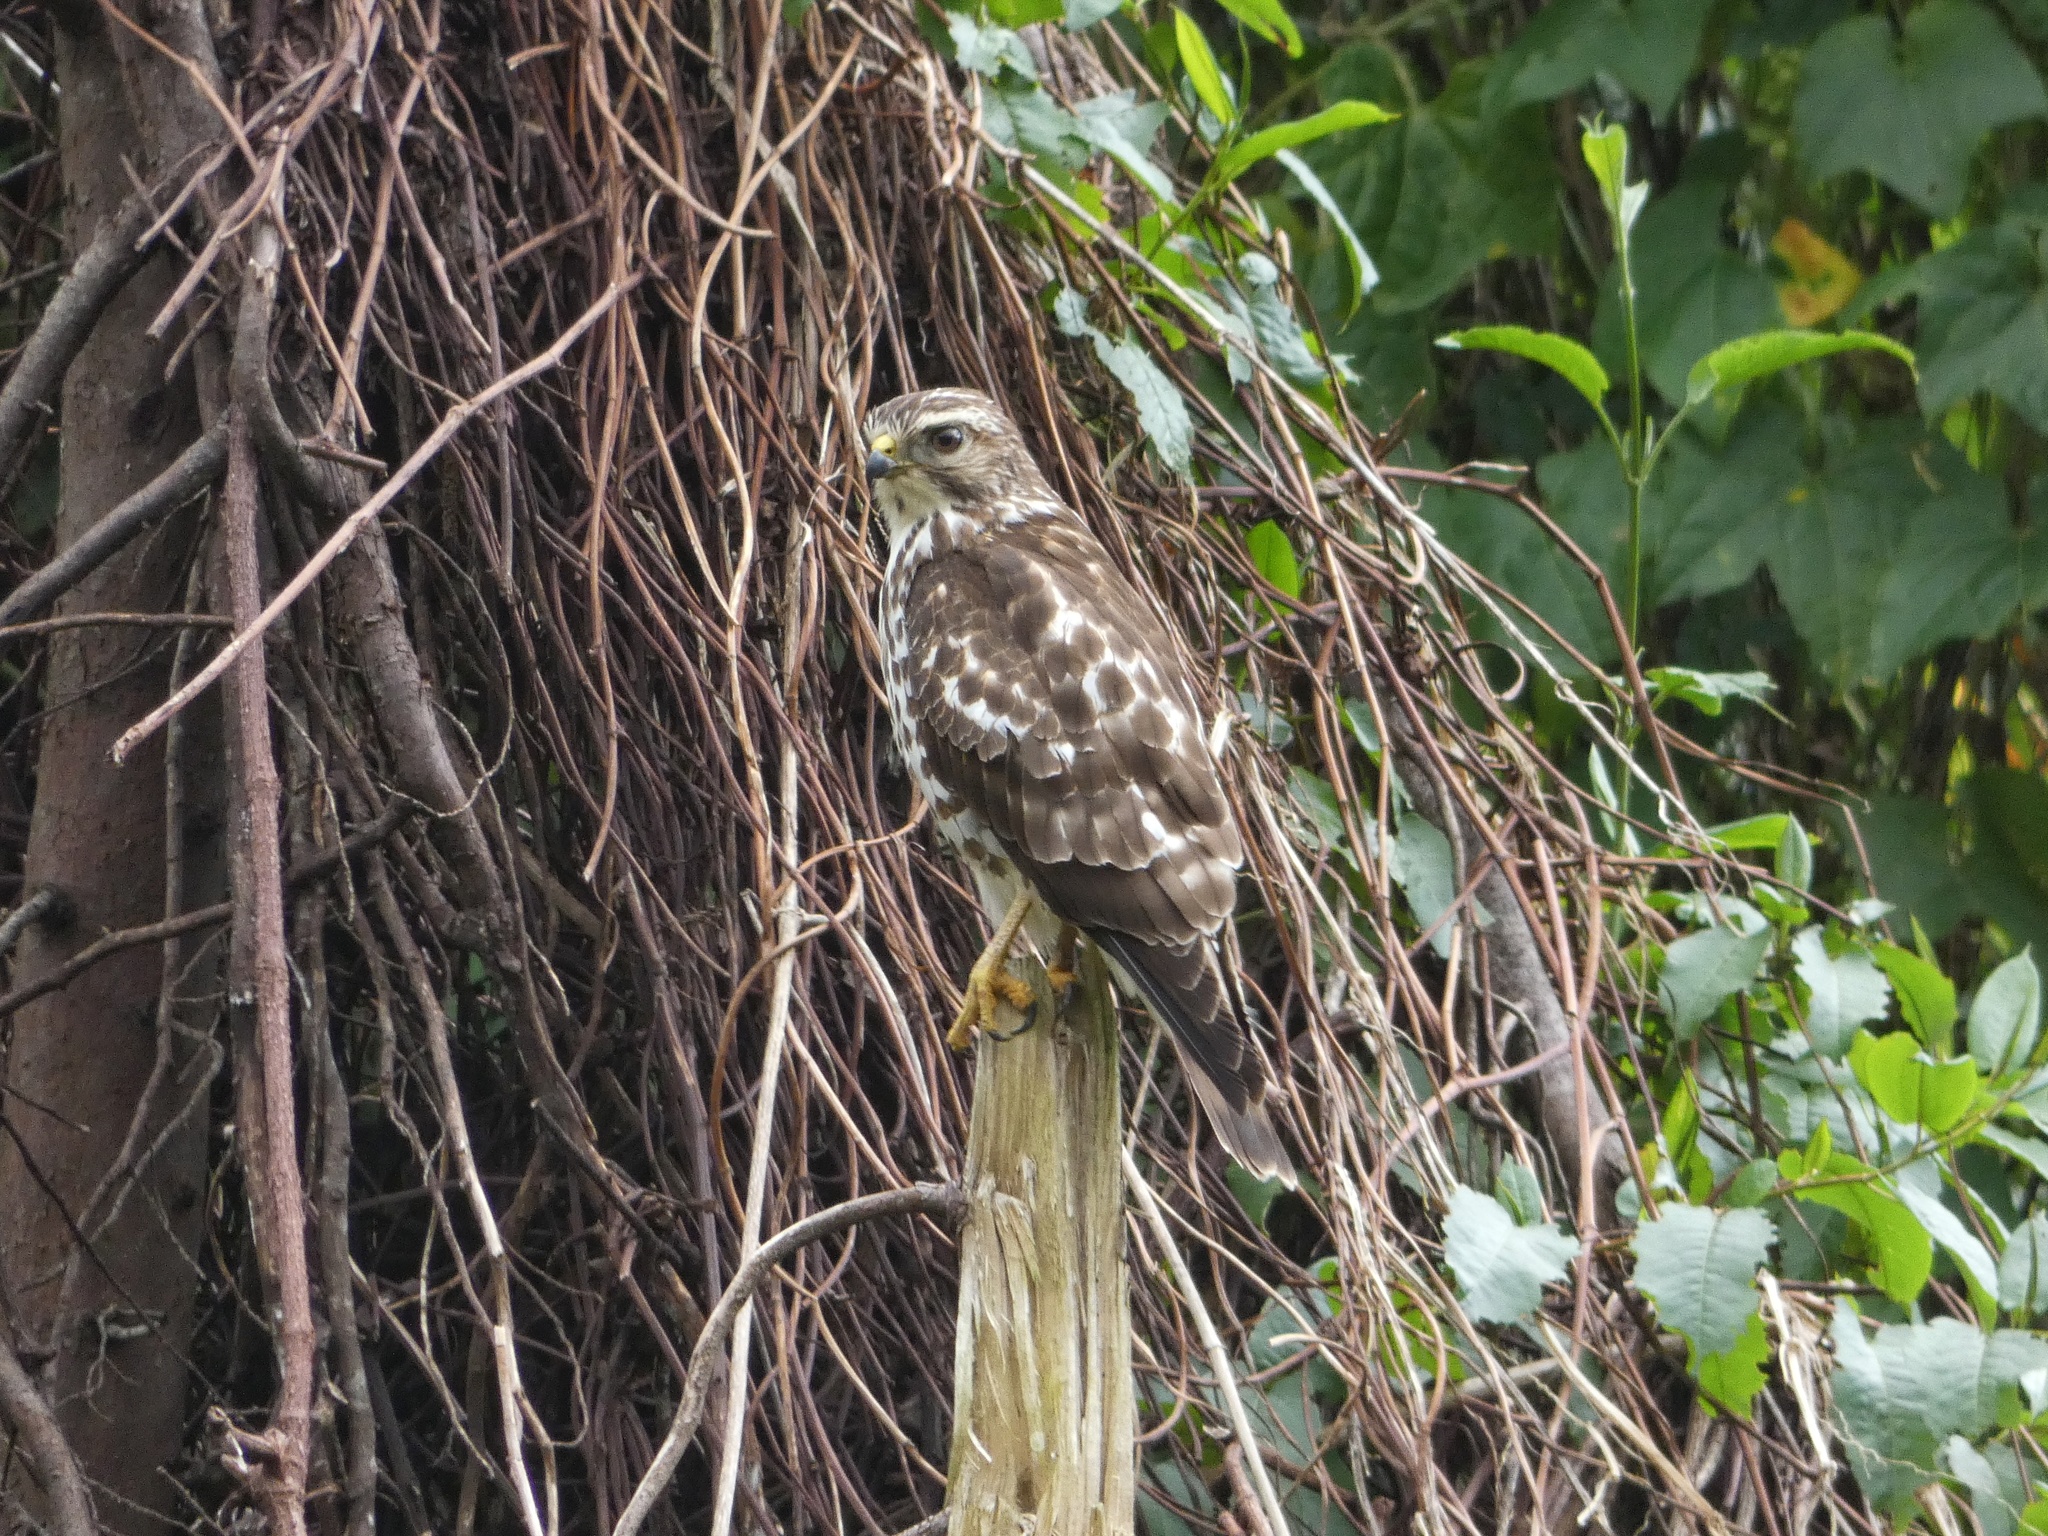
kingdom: Animalia
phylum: Chordata
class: Aves
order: Accipitriformes
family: Accipitridae
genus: Buteo
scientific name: Buteo platypterus
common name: Broad-winged hawk
